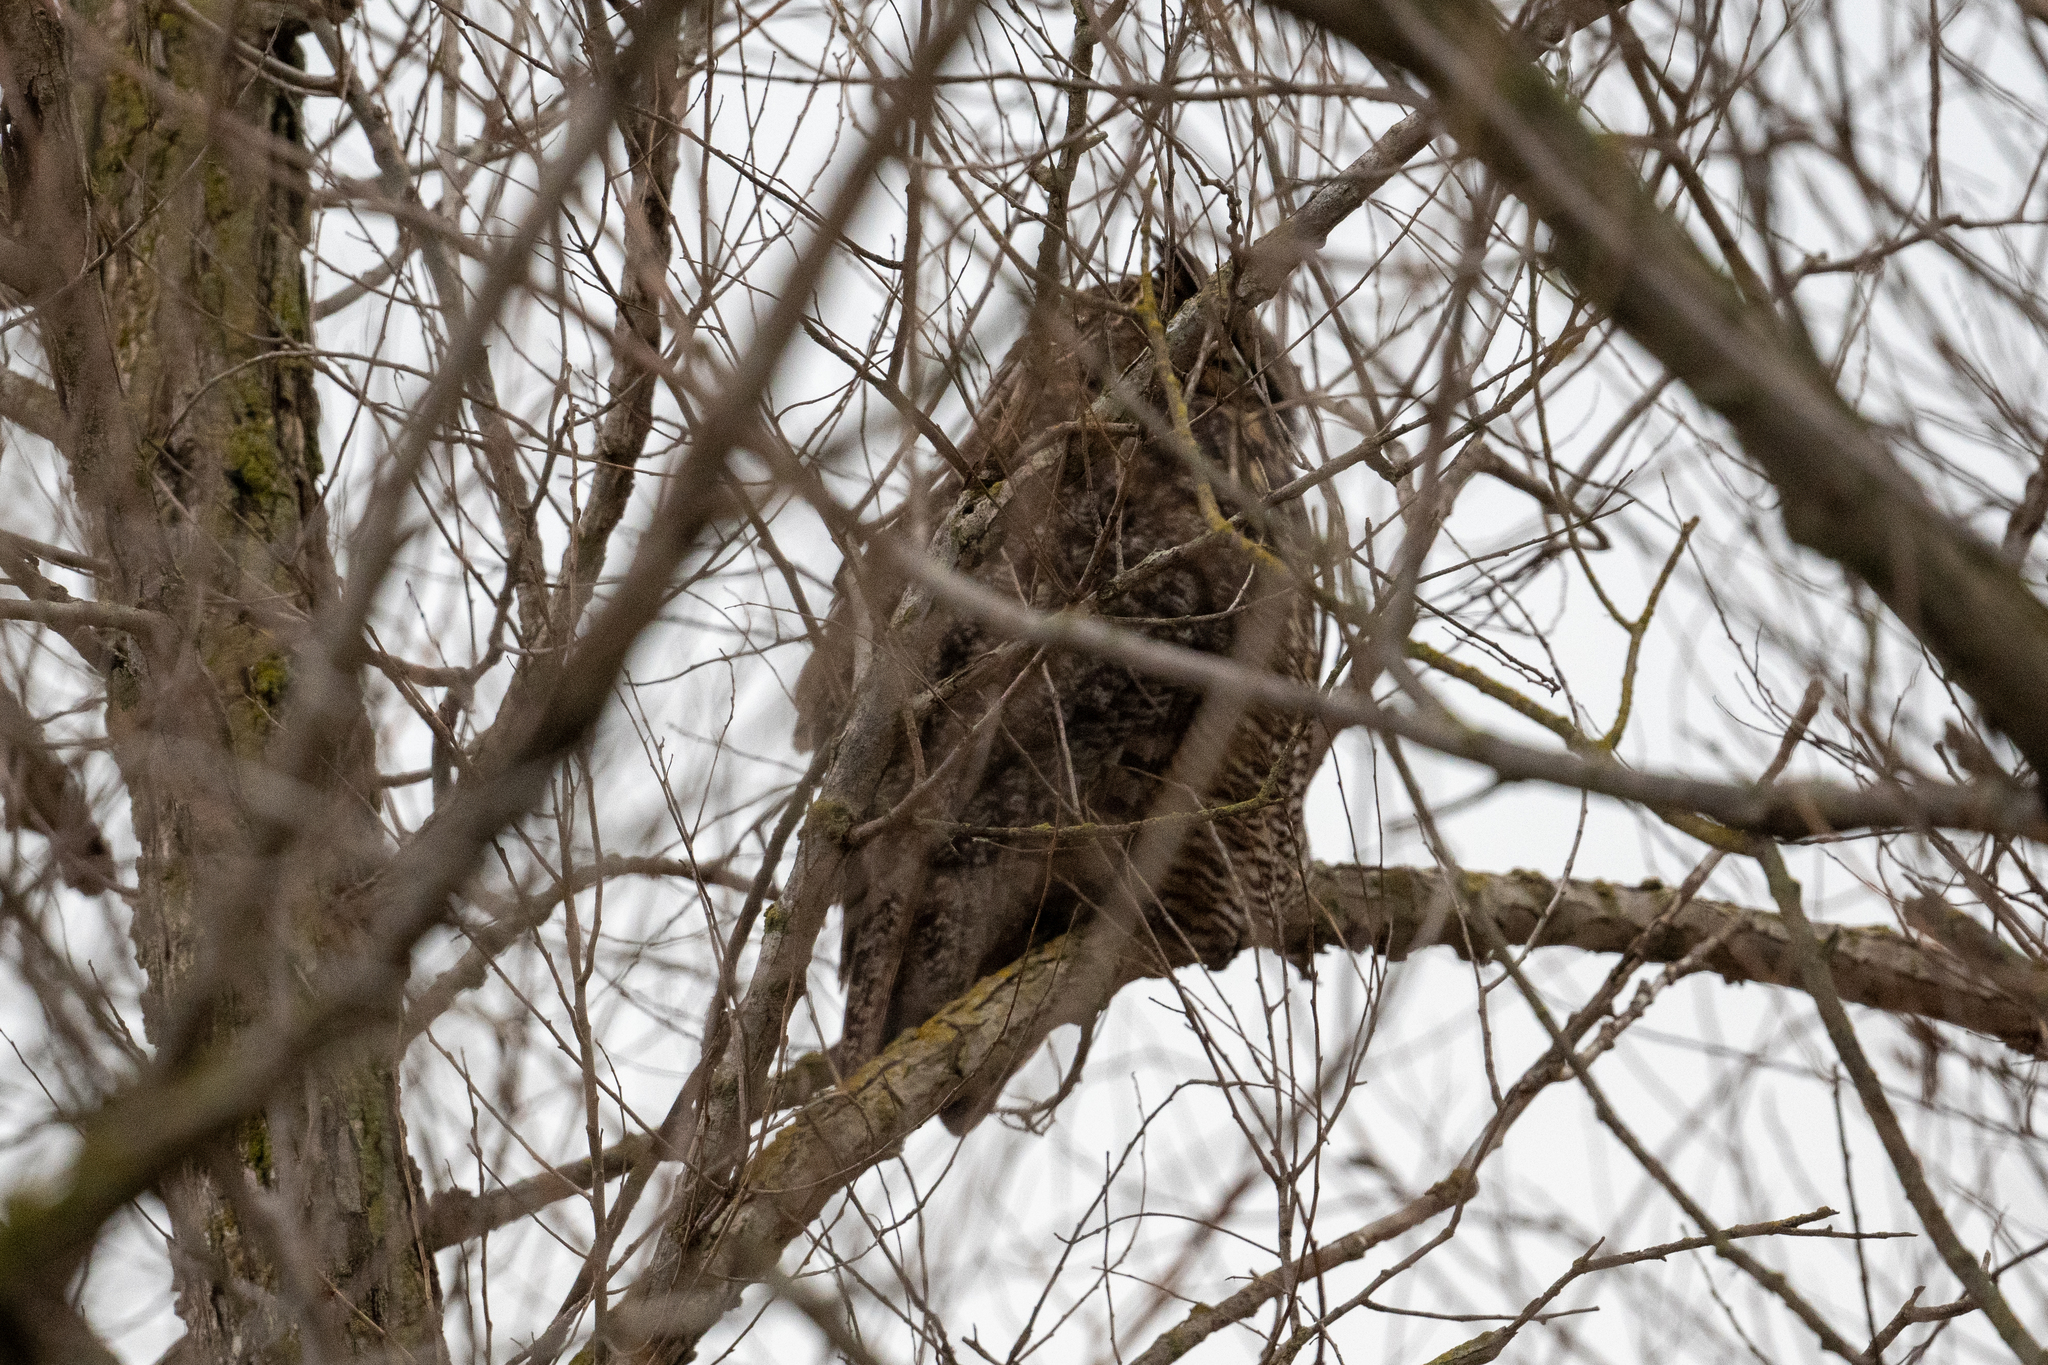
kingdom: Animalia
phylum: Chordata
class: Aves
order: Strigiformes
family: Strigidae
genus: Bubo
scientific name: Bubo virginianus
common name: Great horned owl
